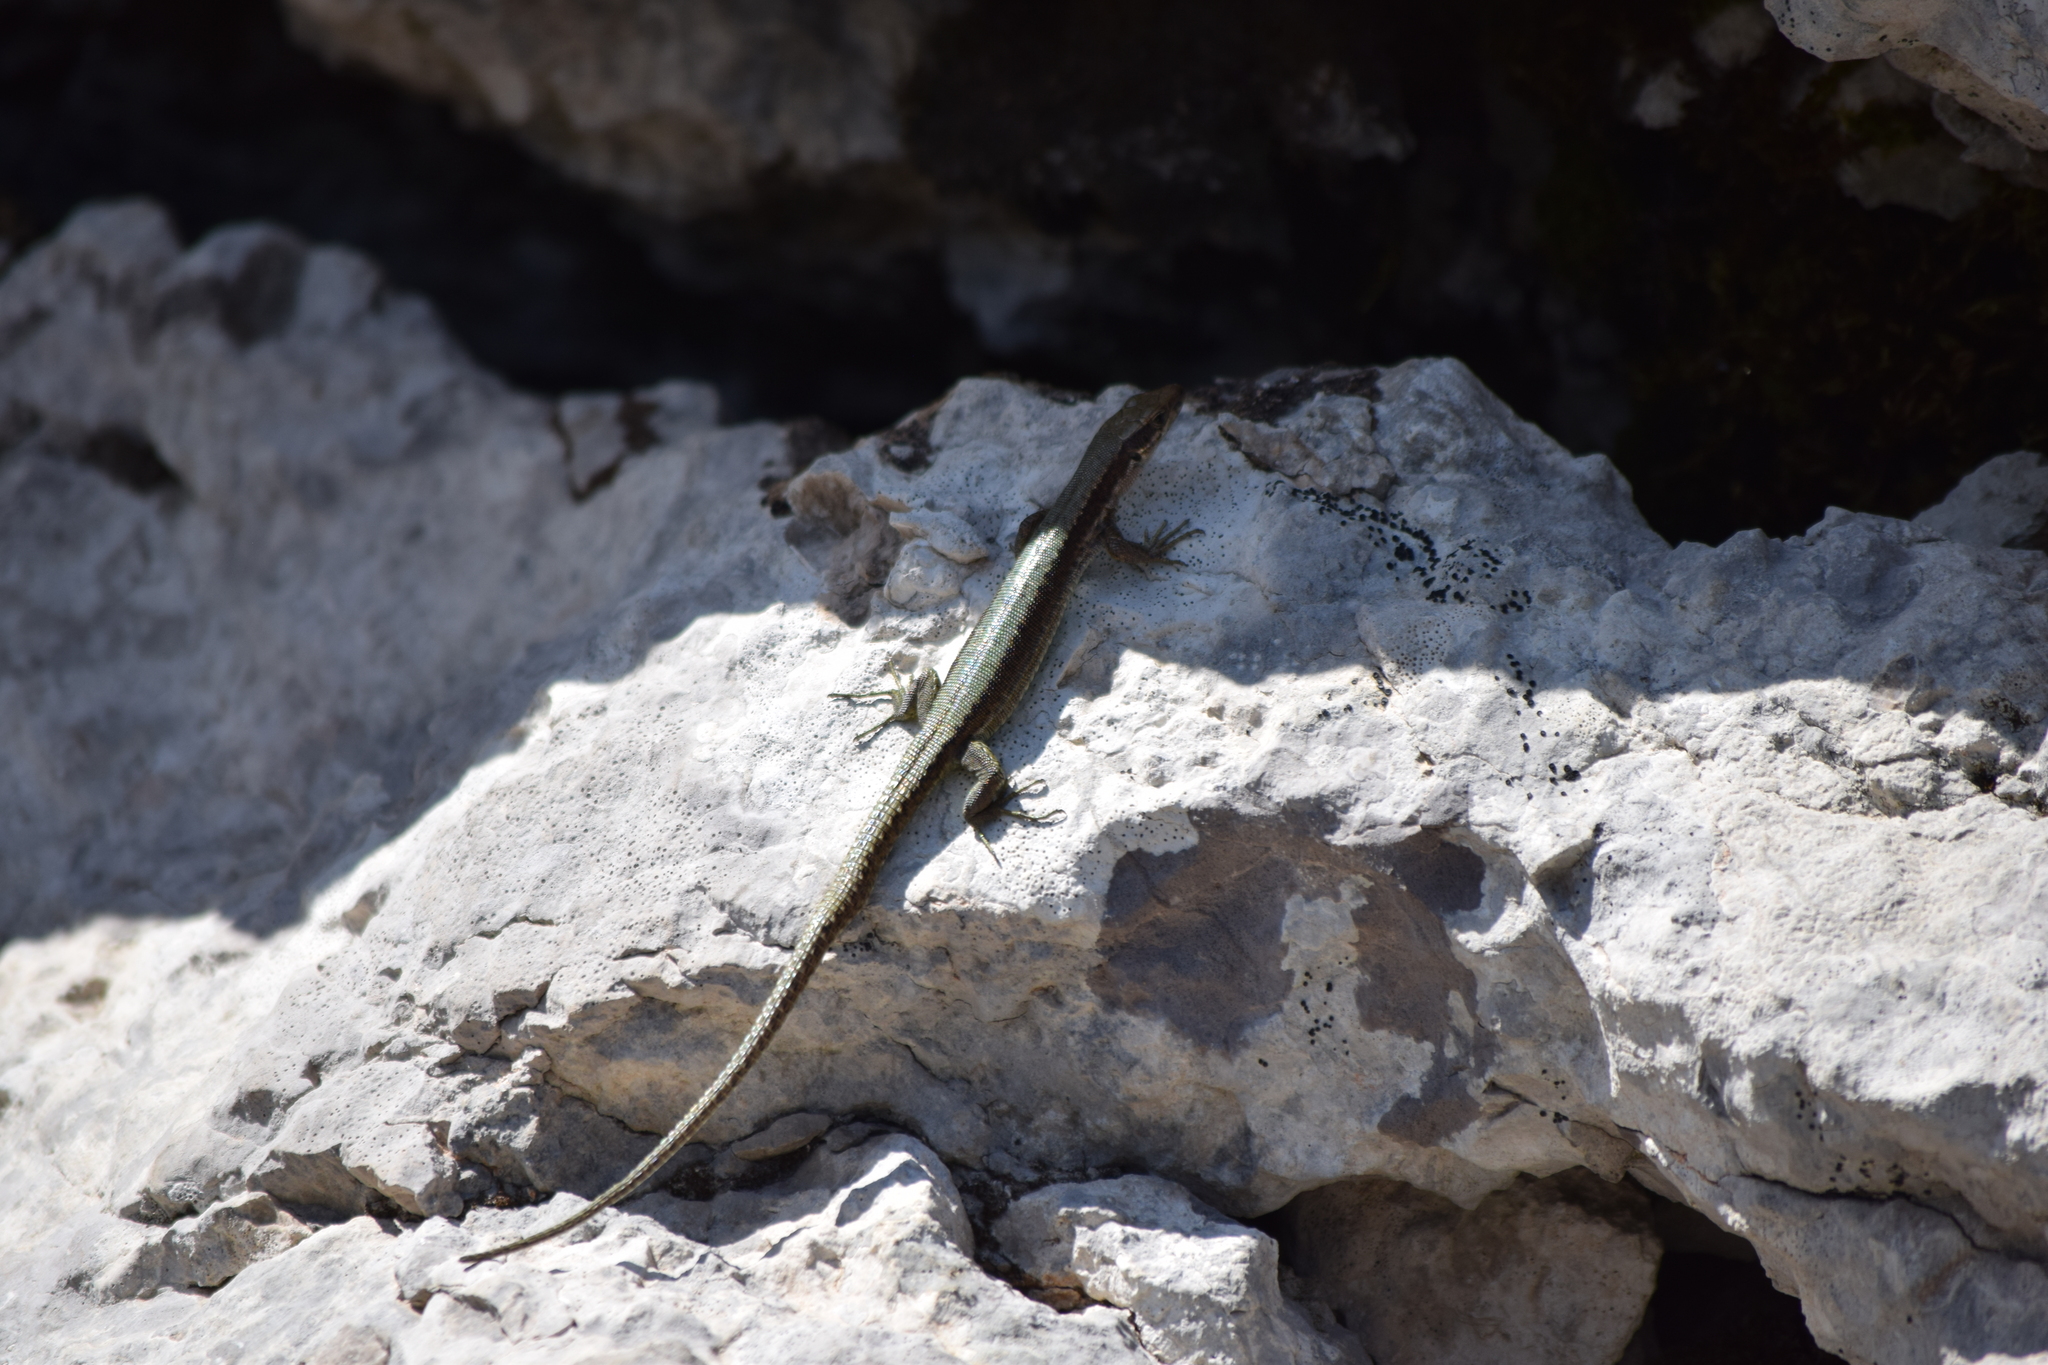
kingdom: Animalia
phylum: Chordata
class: Squamata
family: Lacertidae
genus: Iberolacerta
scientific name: Iberolacerta horvathi
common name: Horvath's rock lizard
